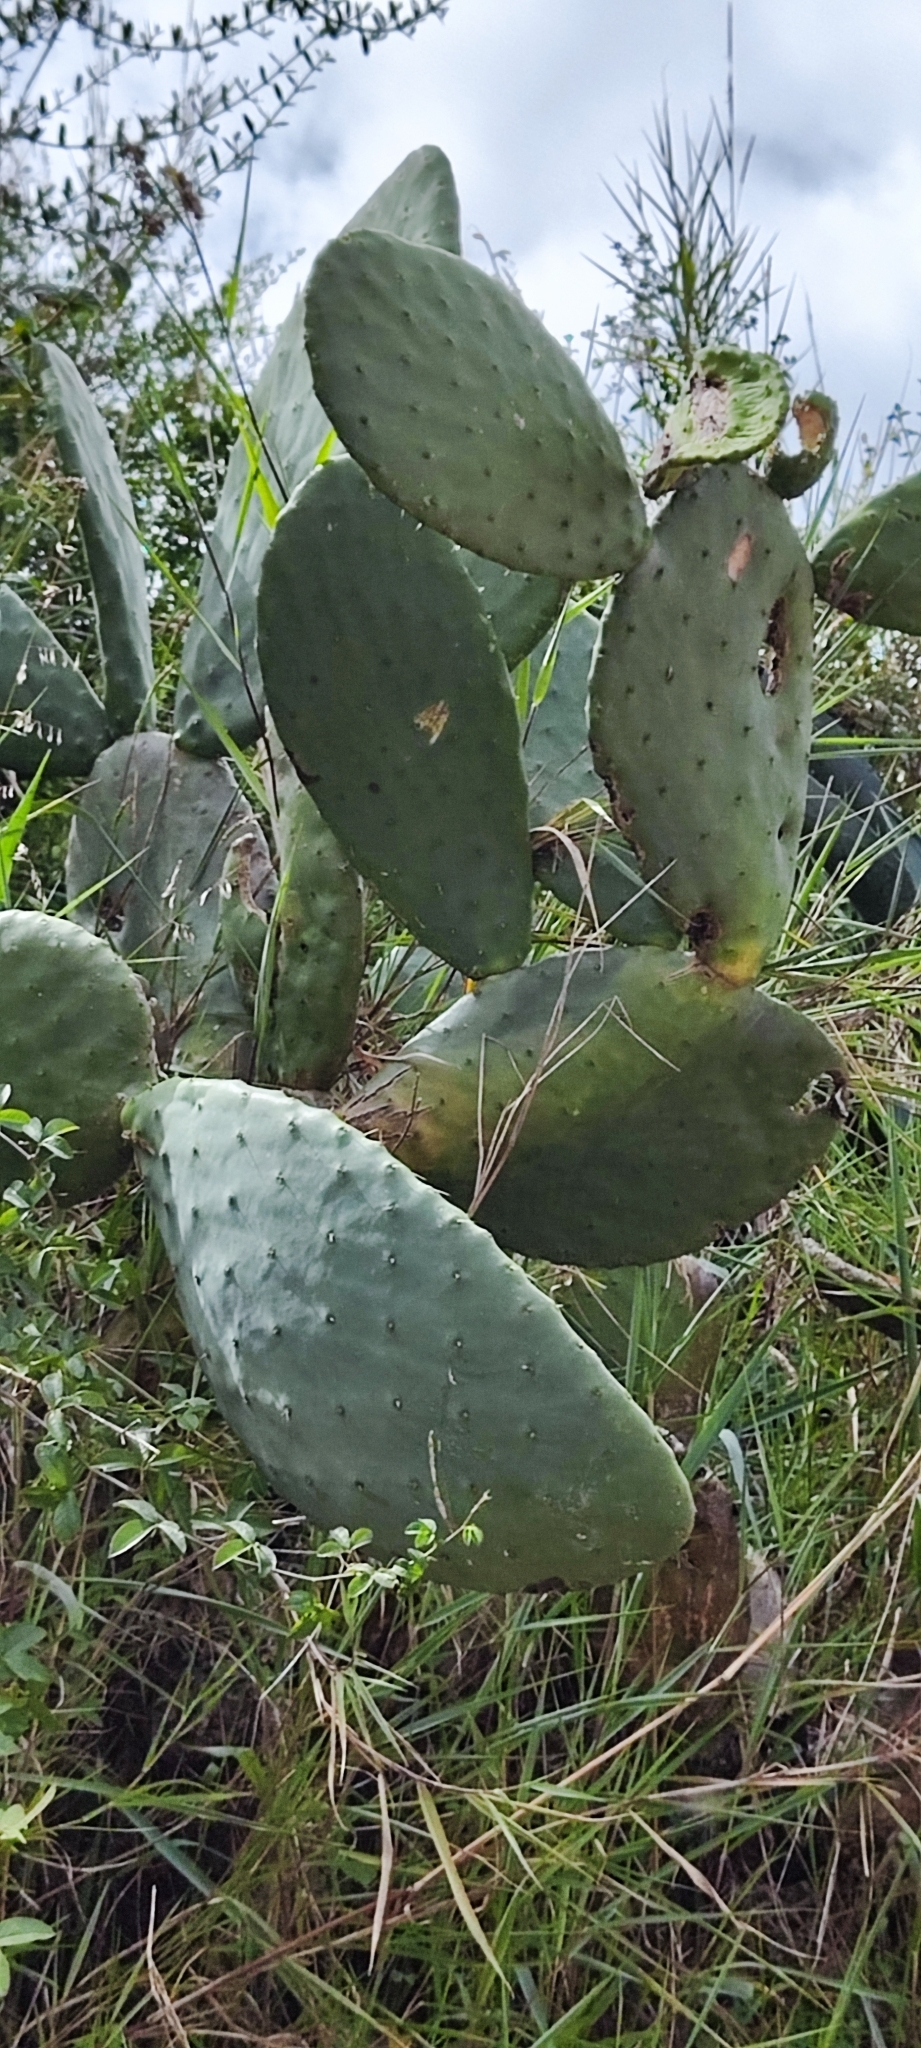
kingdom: Plantae
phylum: Tracheophyta
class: Magnoliopsida
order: Caryophyllales
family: Cactaceae
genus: Opuntia
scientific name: Opuntia ficus-indica
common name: Barbary fig
